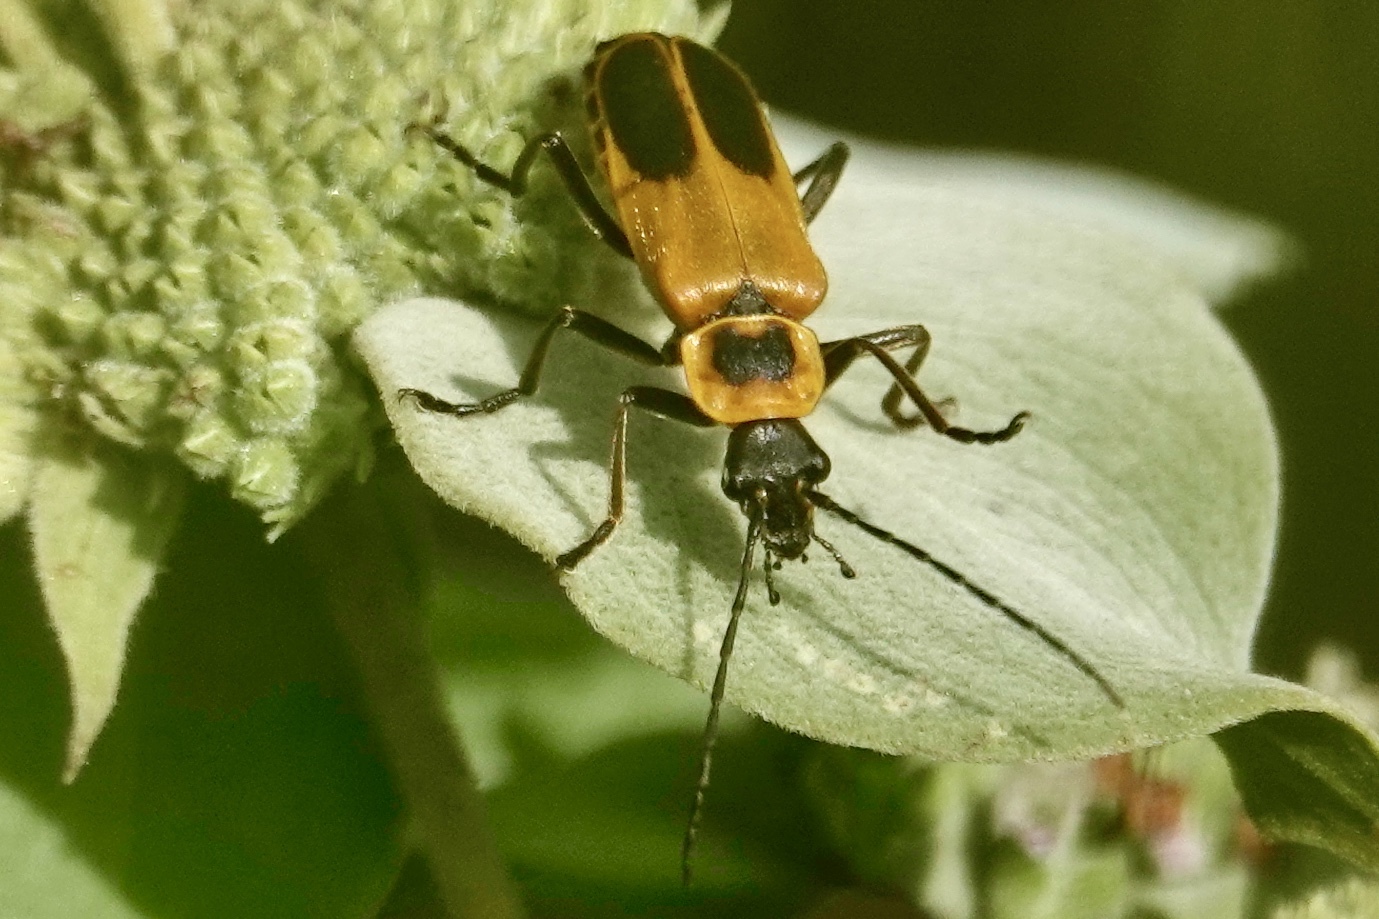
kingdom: Animalia
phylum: Arthropoda
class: Insecta
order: Coleoptera
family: Cantharidae
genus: Chauliognathus
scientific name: Chauliognathus pensylvanicus
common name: Goldenrod soldier beetle
